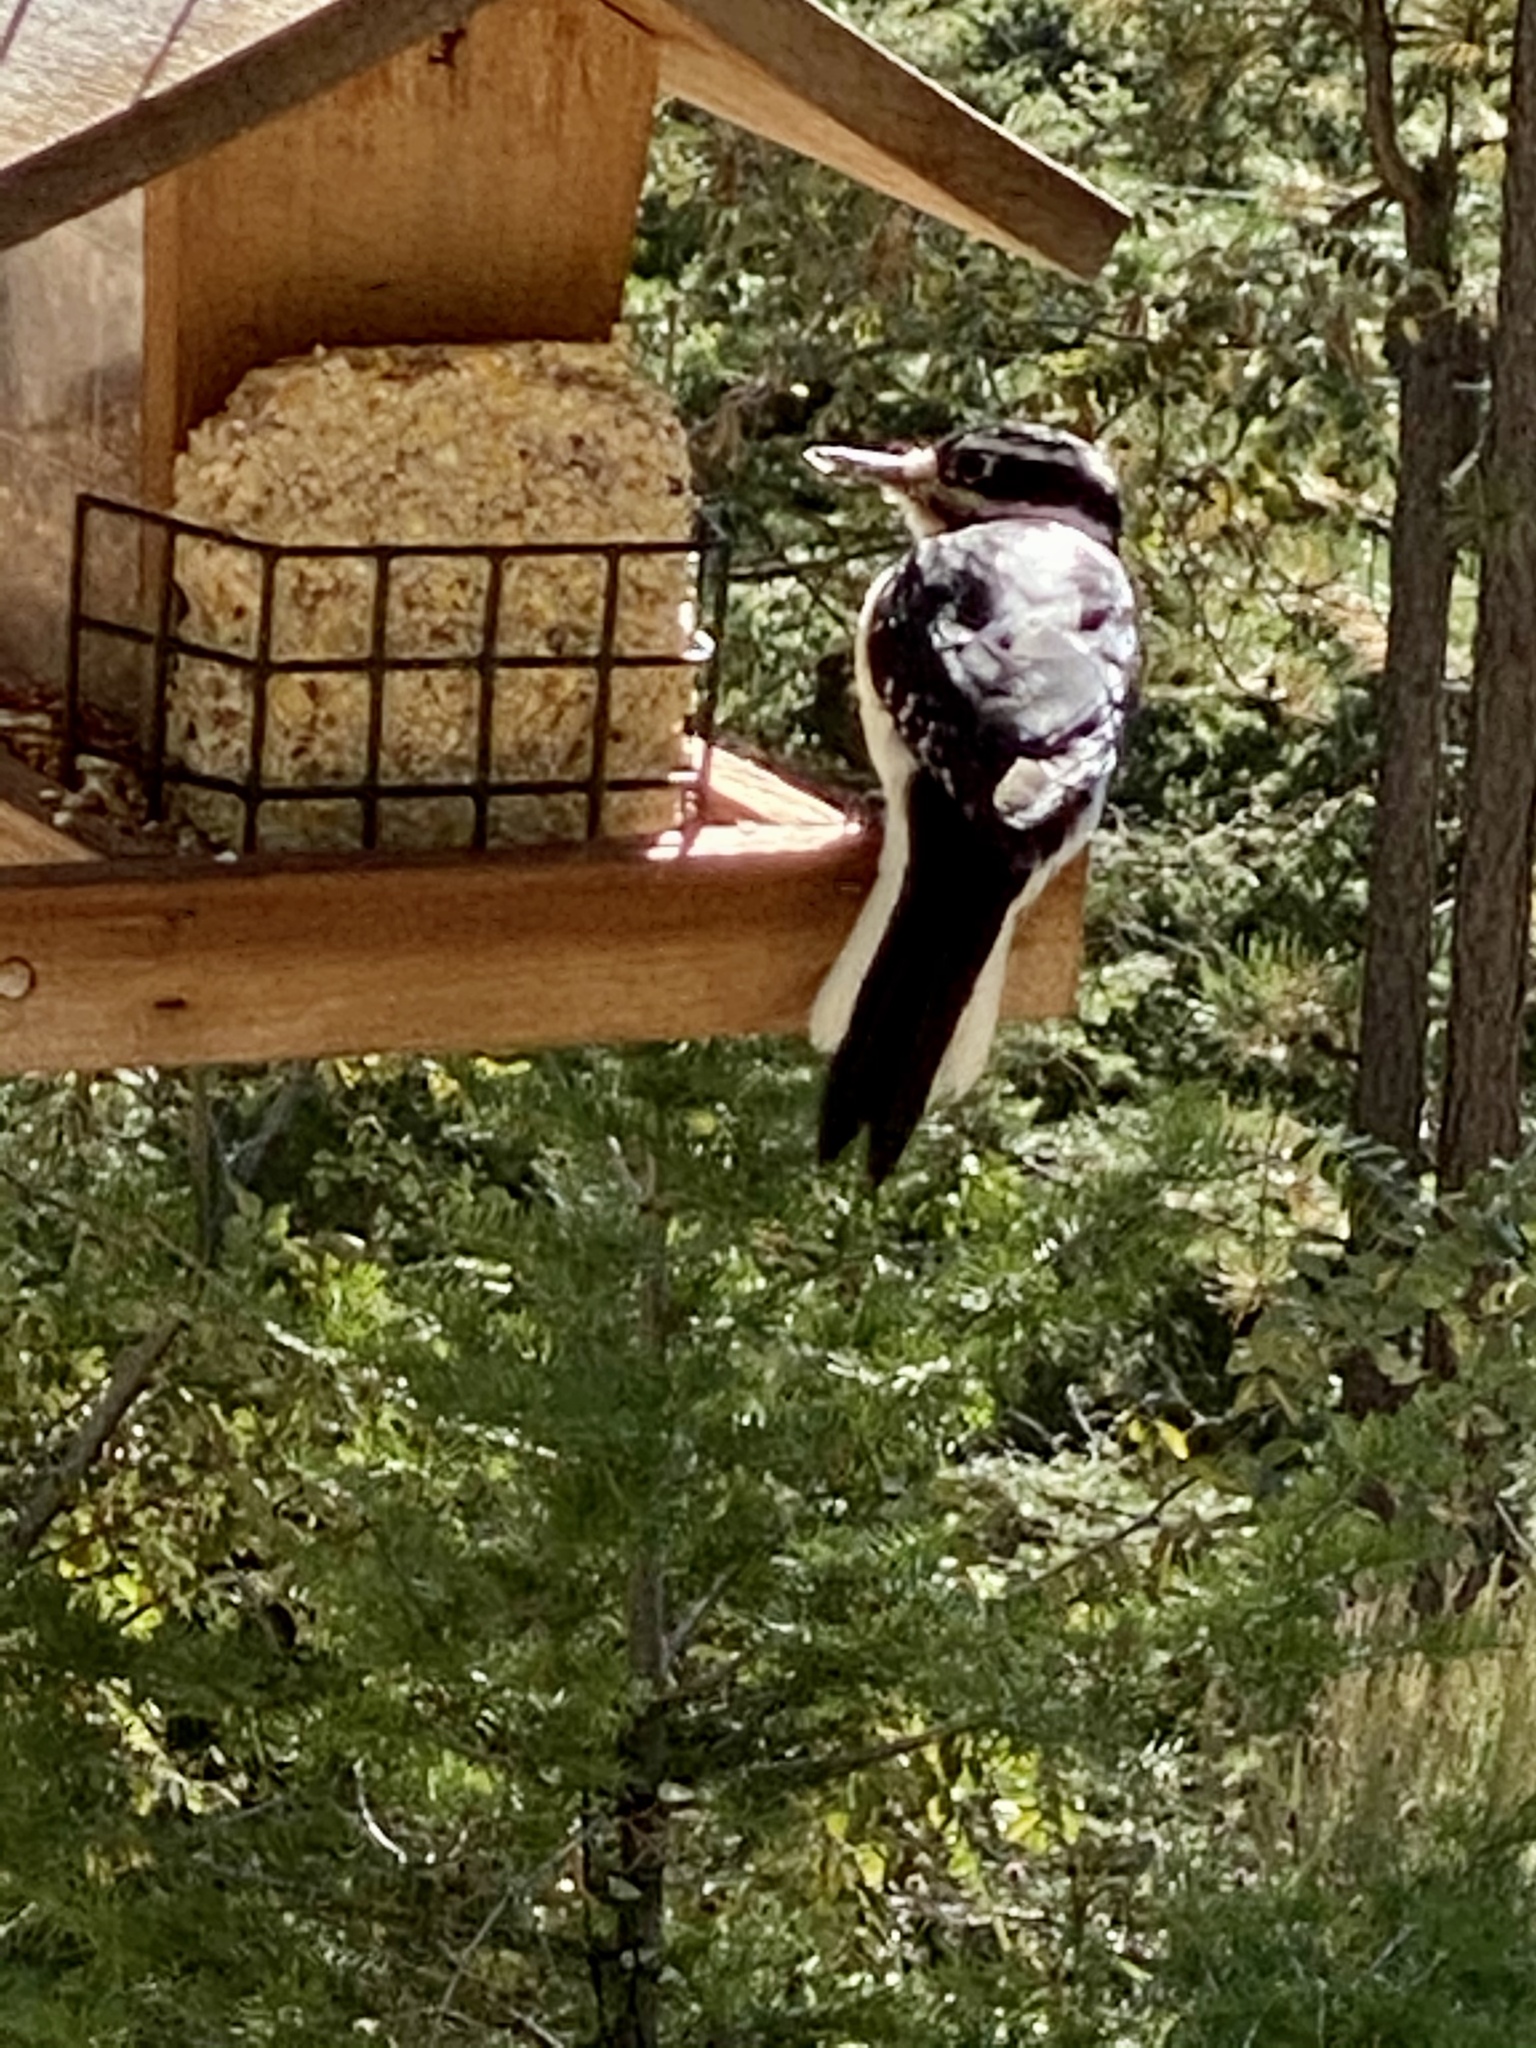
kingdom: Animalia
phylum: Chordata
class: Aves
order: Piciformes
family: Picidae
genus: Leuconotopicus
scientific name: Leuconotopicus villosus
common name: Hairy woodpecker
